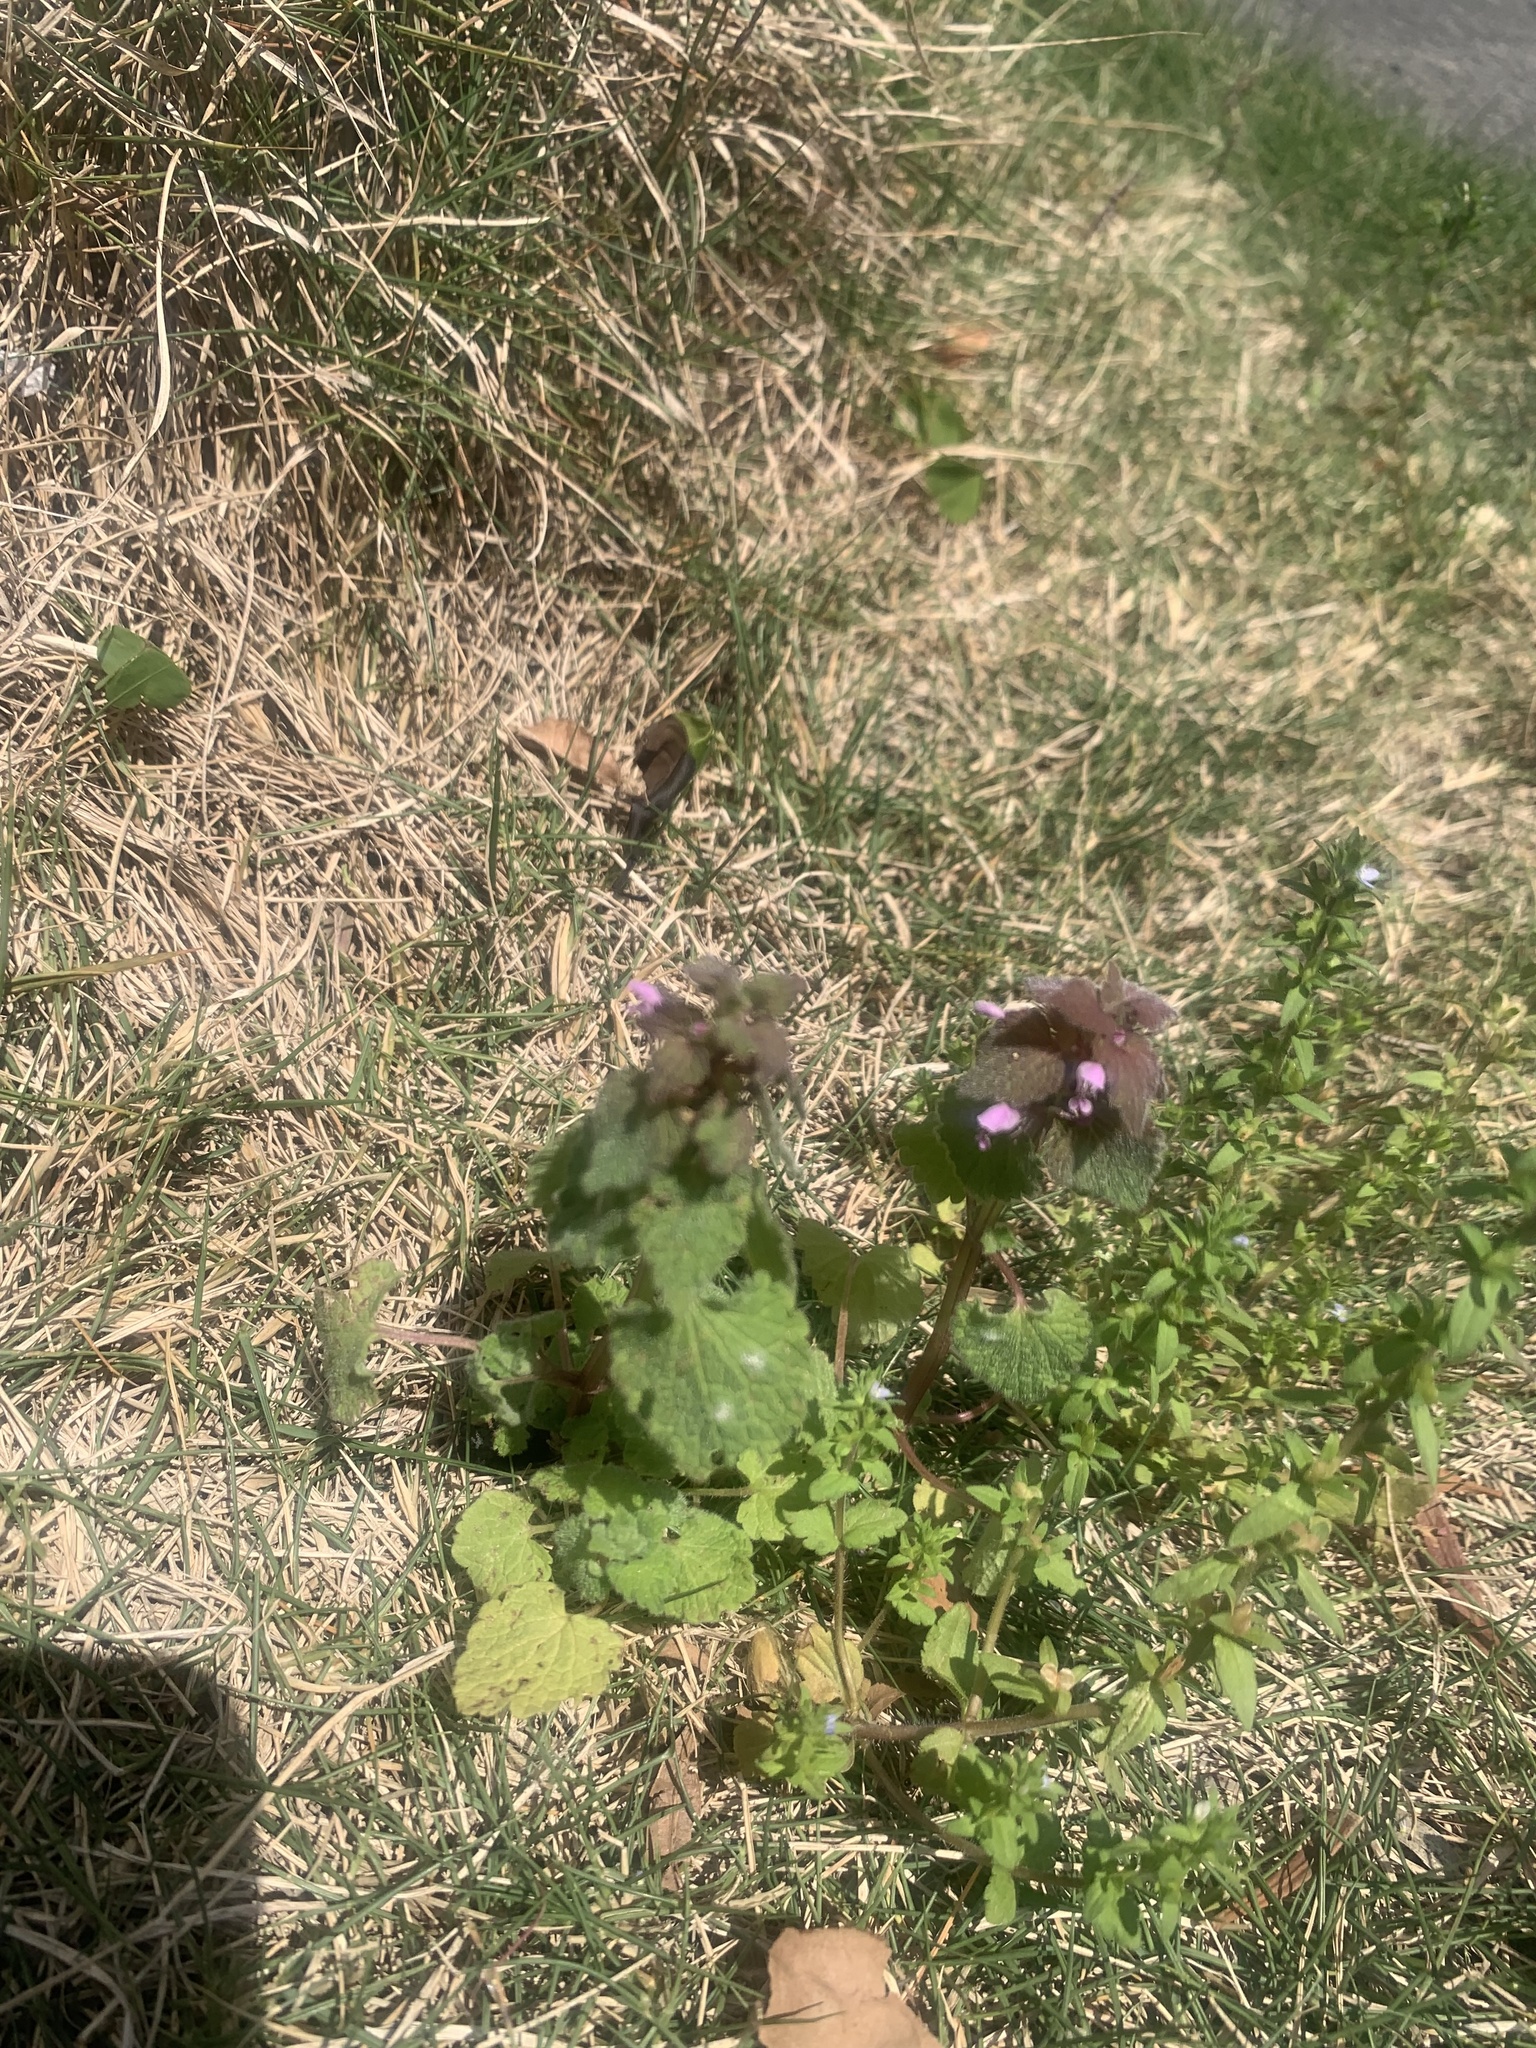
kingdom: Plantae
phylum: Tracheophyta
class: Magnoliopsida
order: Lamiales
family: Lamiaceae
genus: Lamium
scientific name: Lamium purpureum
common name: Red dead-nettle
